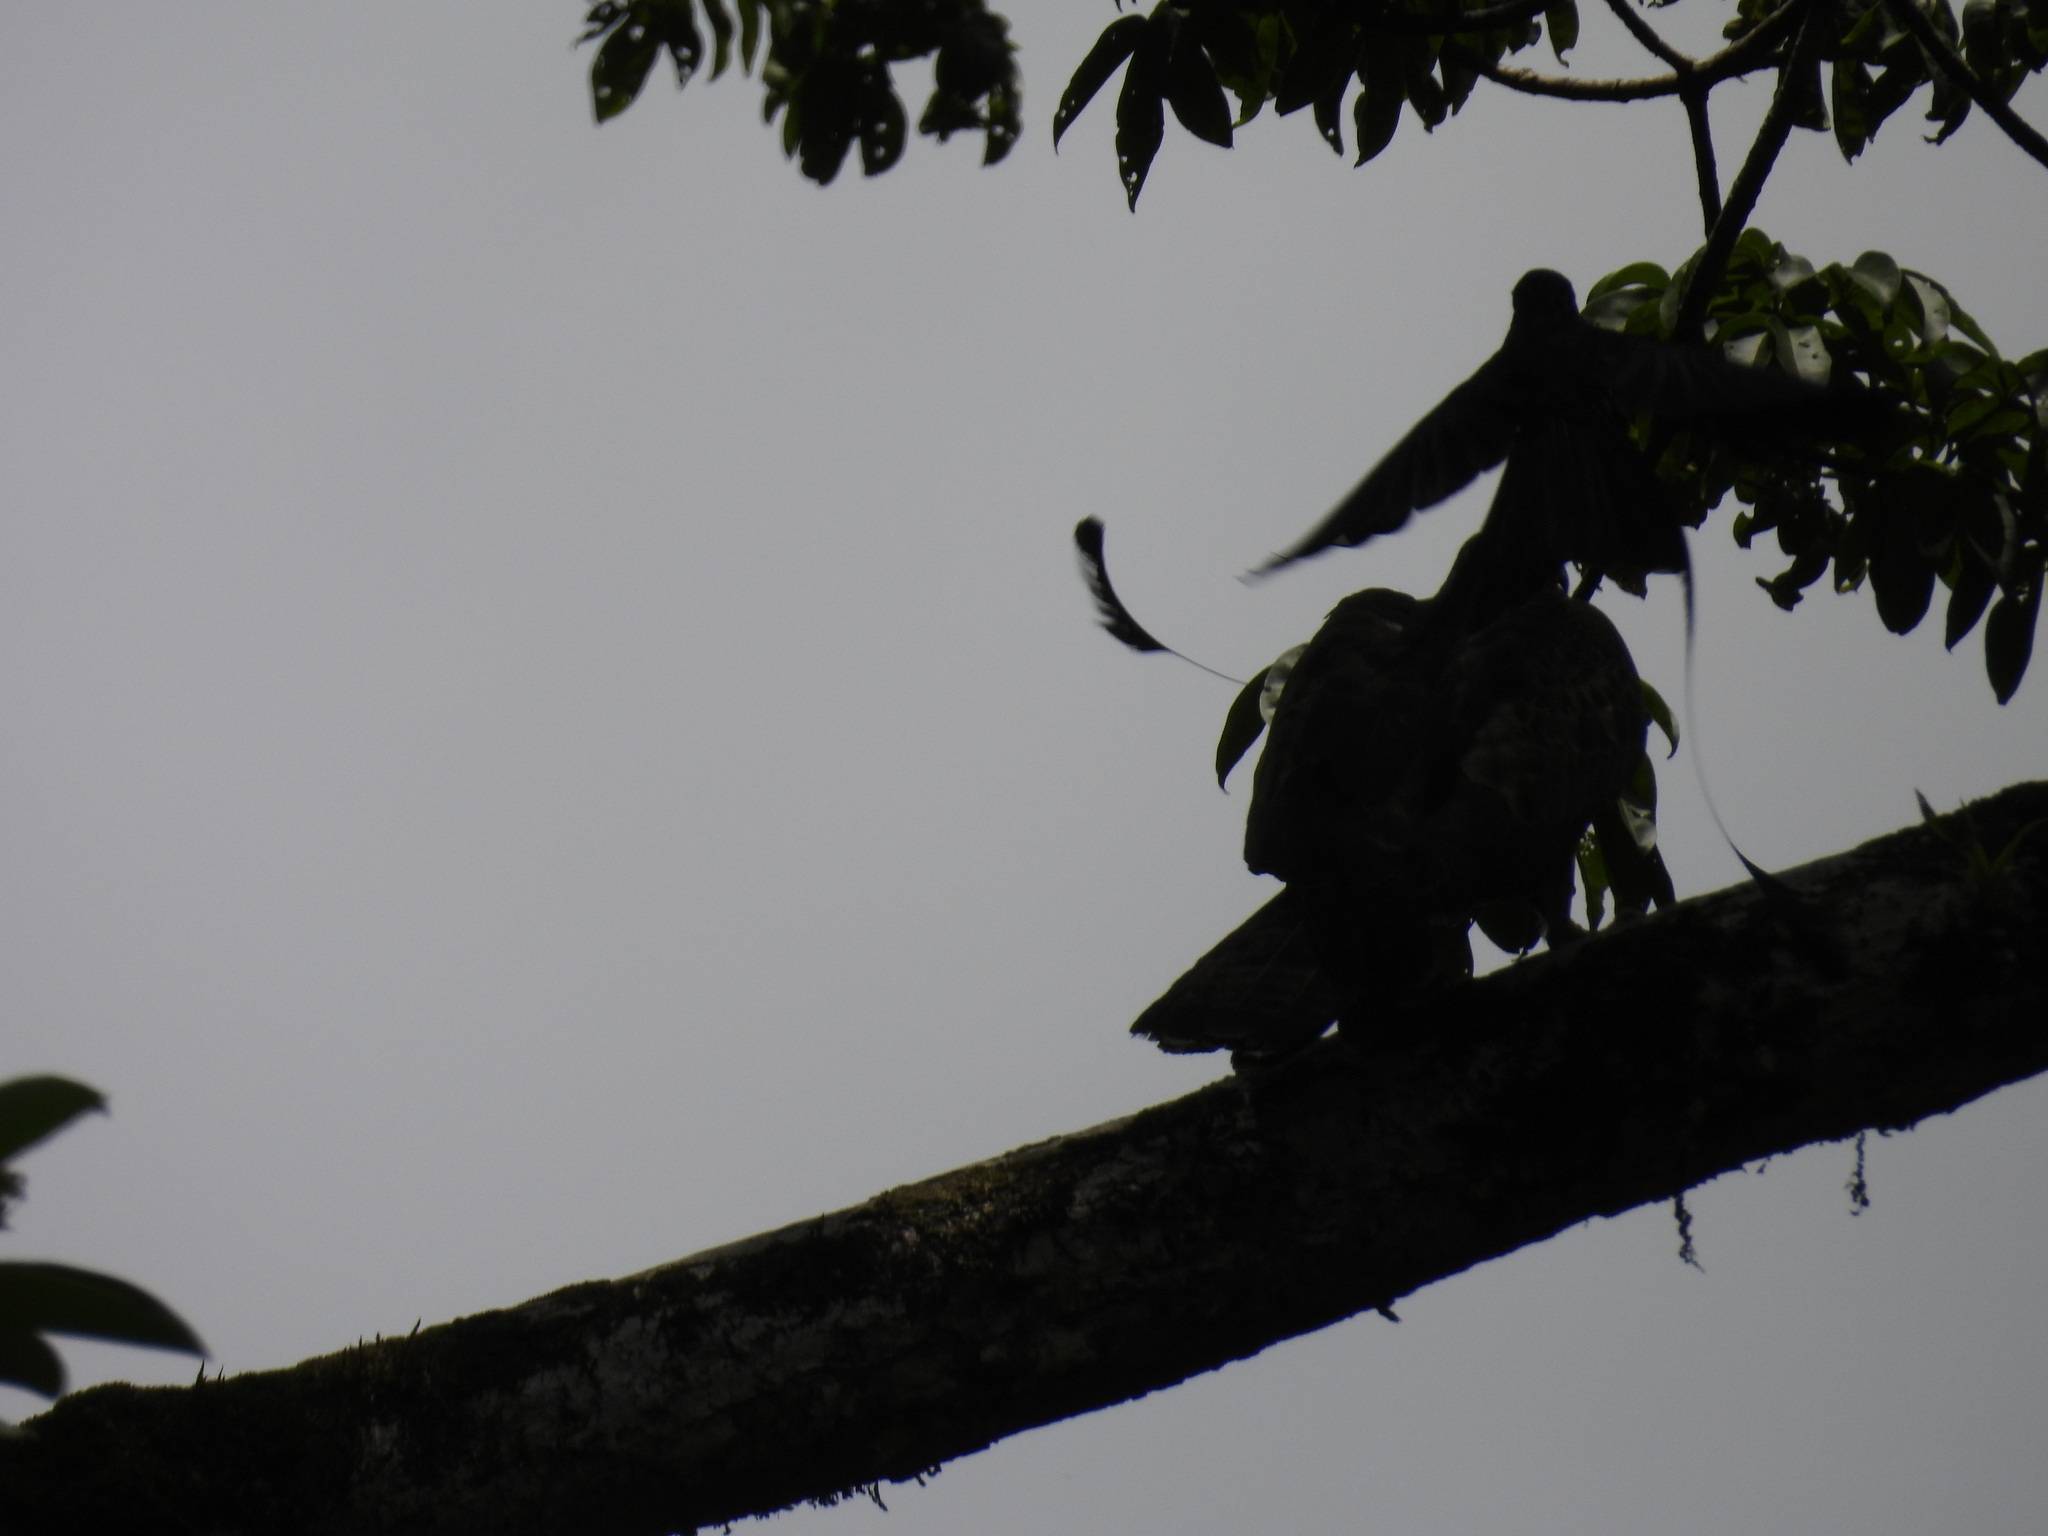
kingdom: Animalia
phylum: Chordata
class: Aves
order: Passeriformes
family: Dicruridae
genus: Dicrurus
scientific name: Dicrurus paradiseus
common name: Greater racket-tailed drongo
